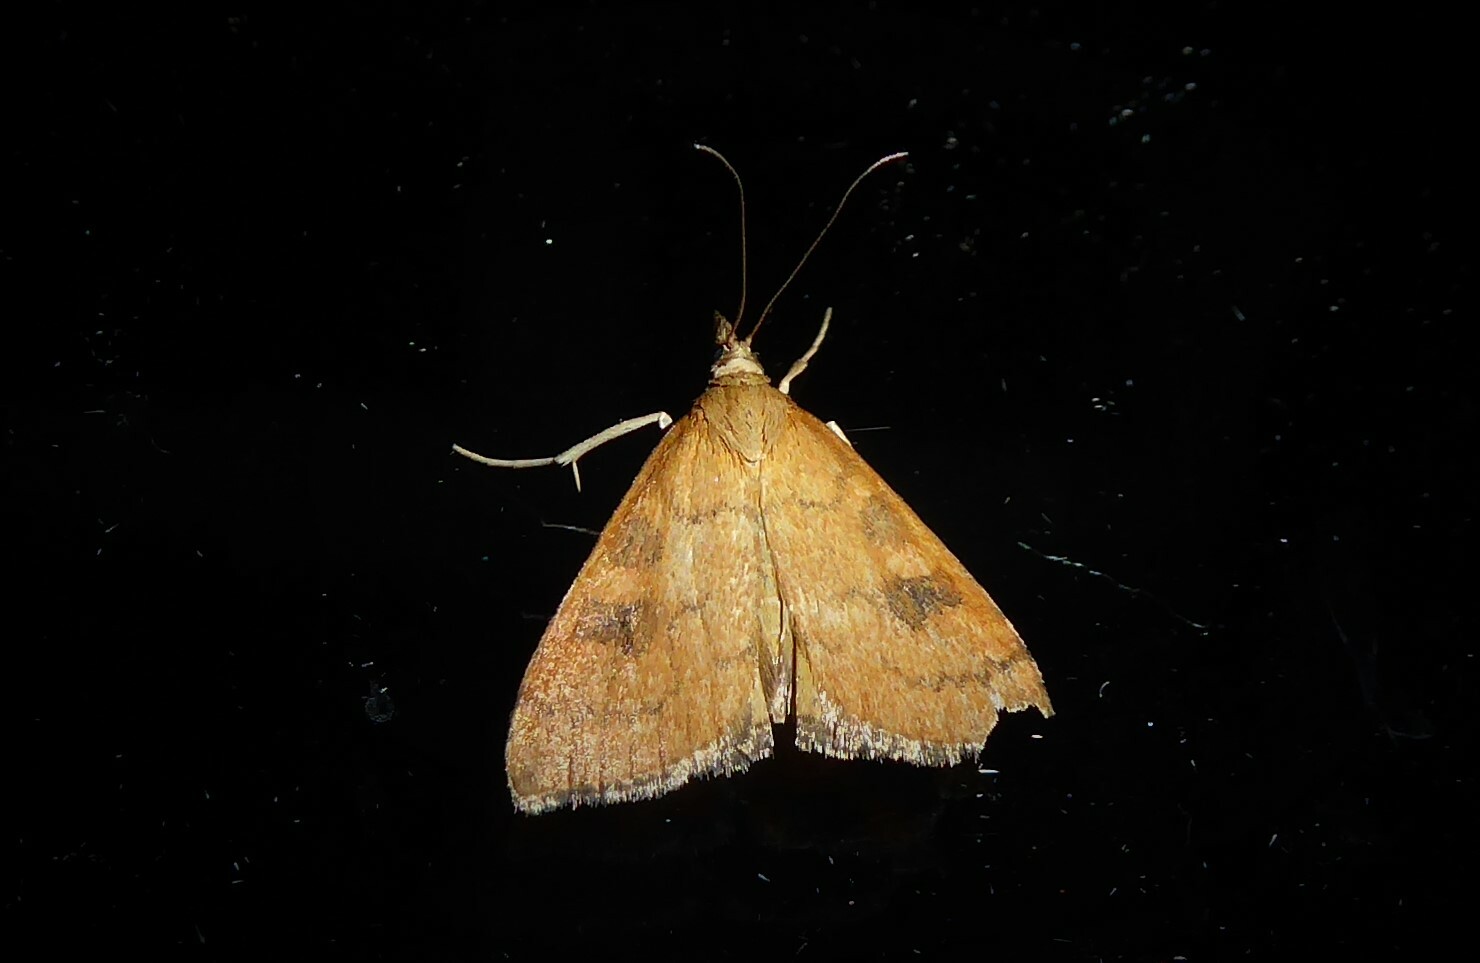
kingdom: Animalia
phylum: Arthropoda
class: Insecta
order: Lepidoptera
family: Crambidae
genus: Udea
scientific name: Udea Mnesictena flavidalis
